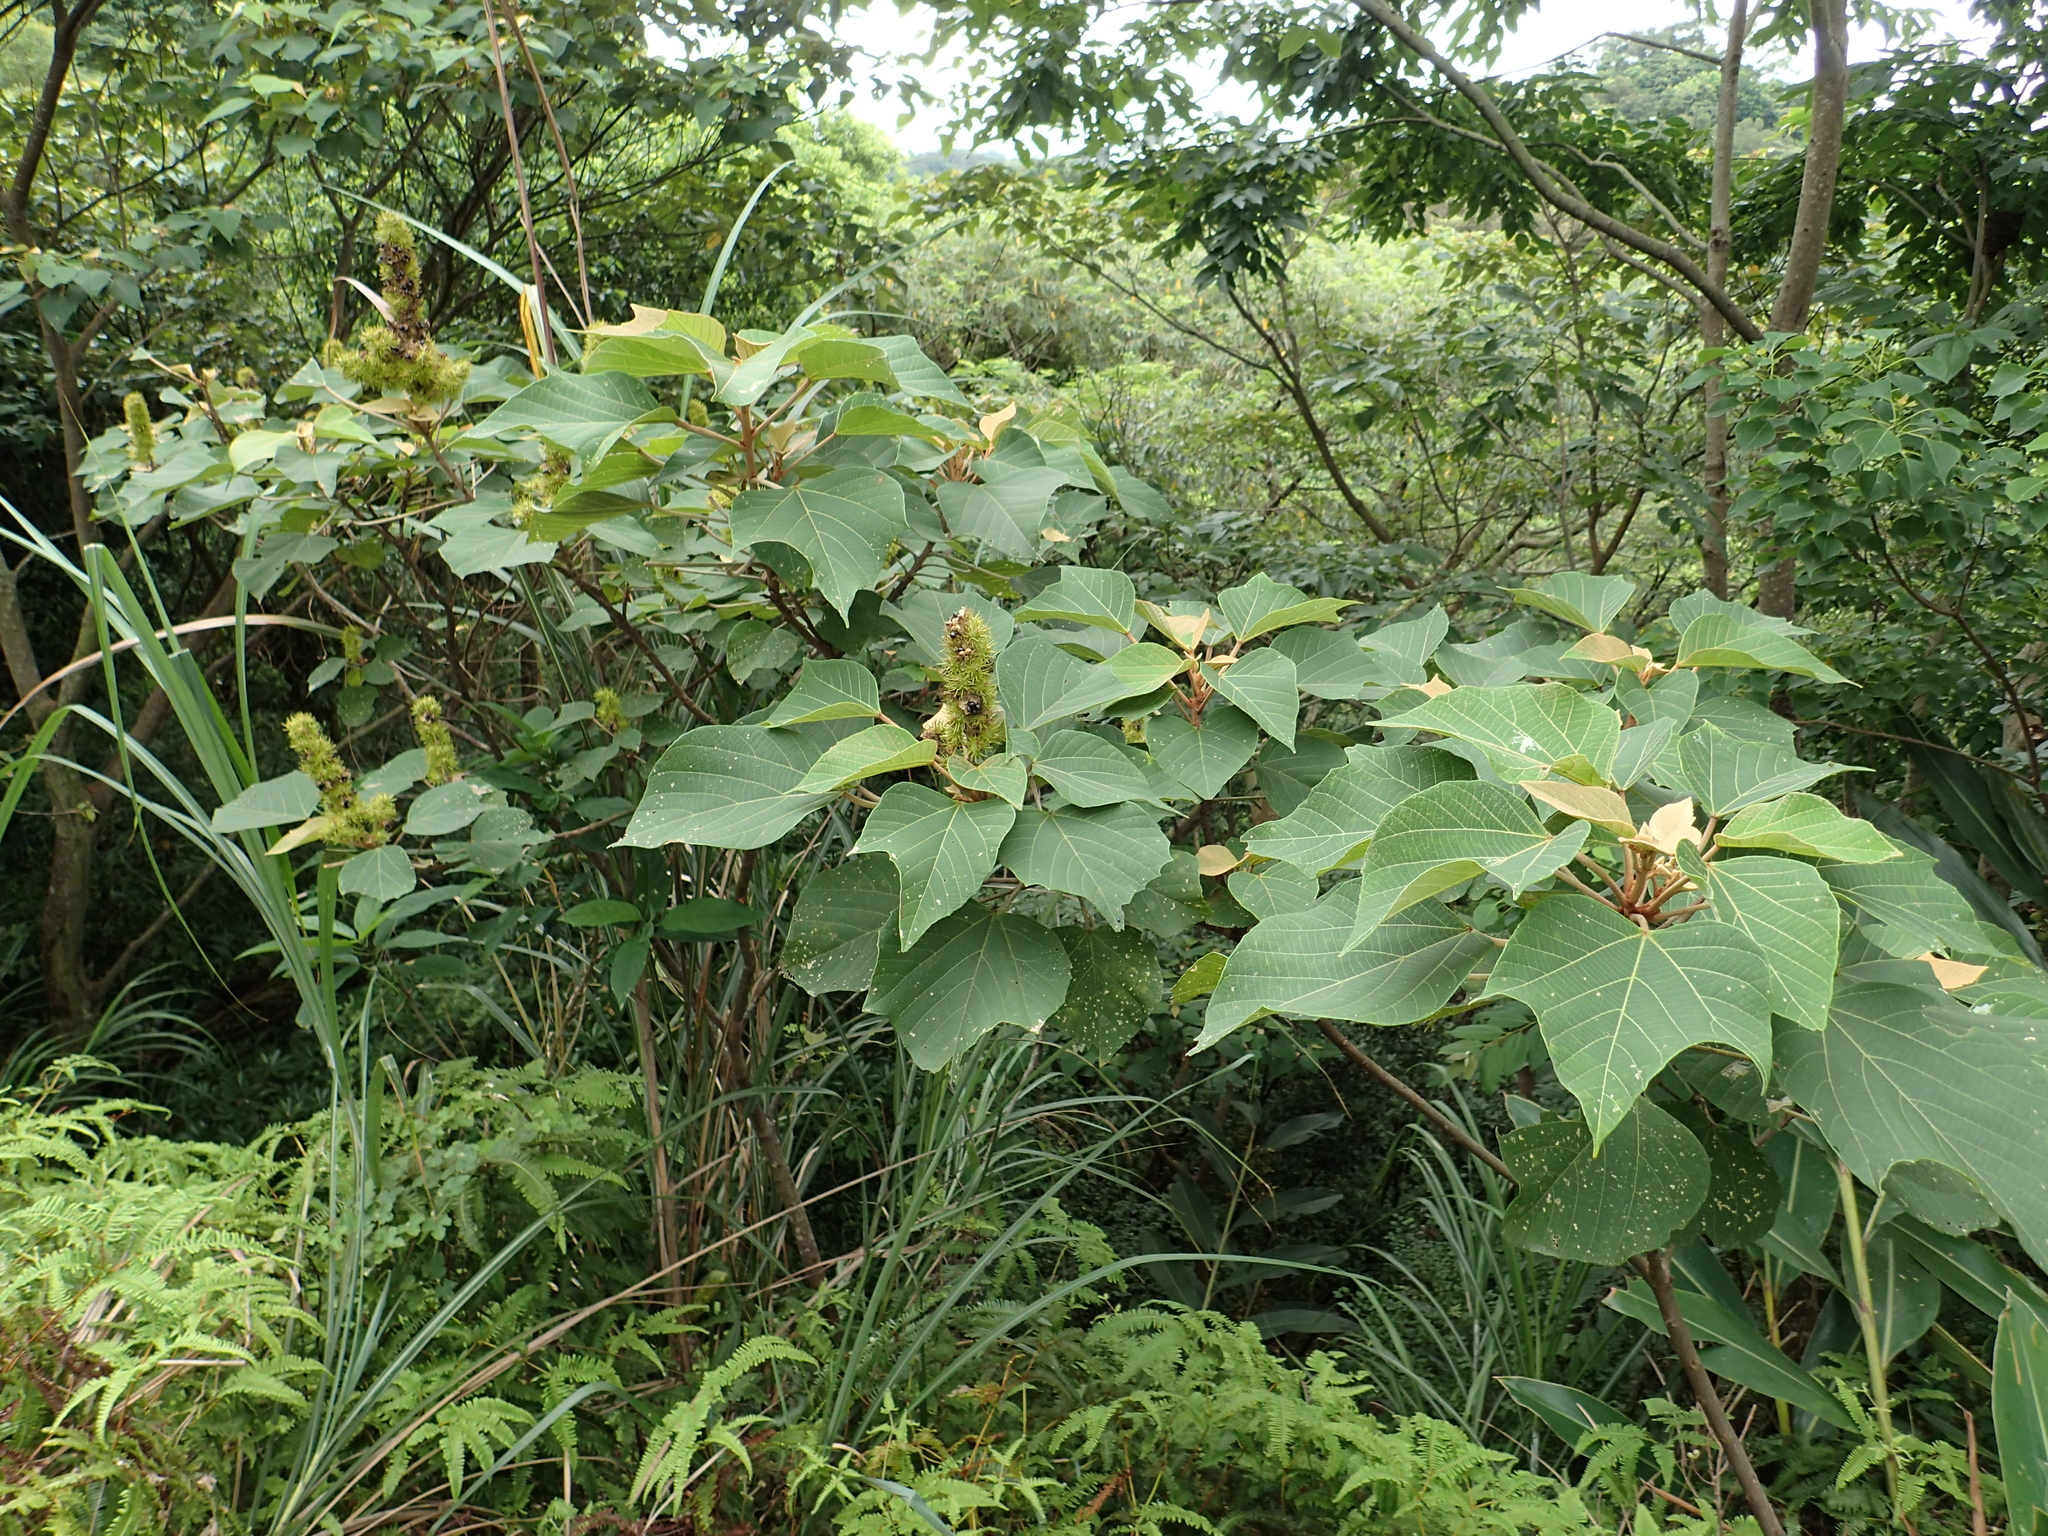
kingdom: Plantae
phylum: Tracheophyta
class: Magnoliopsida
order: Malpighiales
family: Euphorbiaceae
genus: Mallotus
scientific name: Mallotus japonicus
